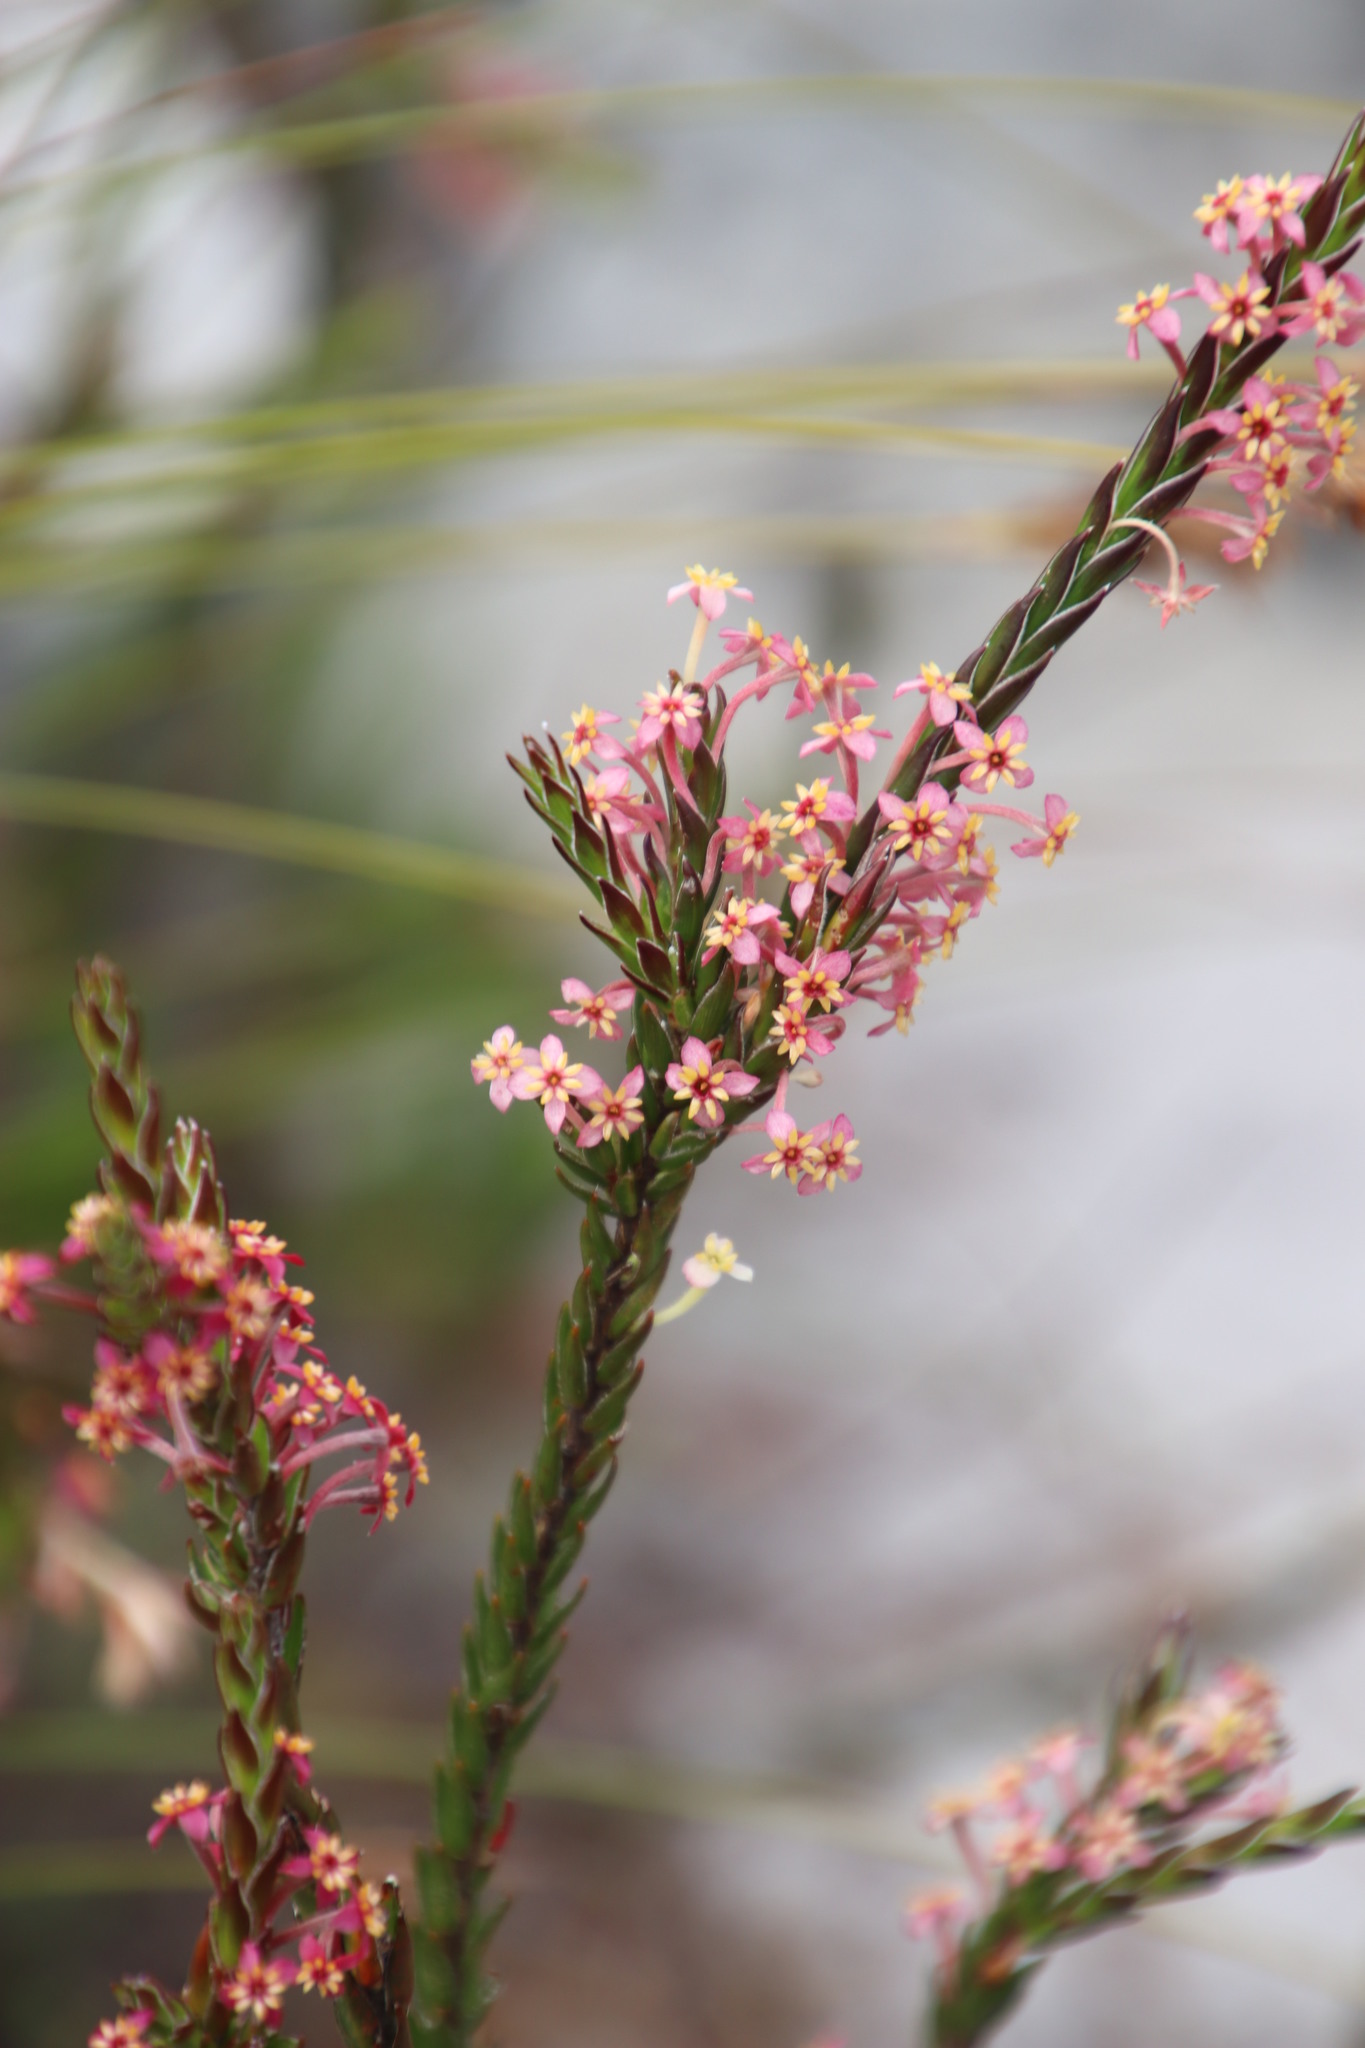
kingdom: Plantae
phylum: Tracheophyta
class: Magnoliopsida
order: Malvales
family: Thymelaeaceae
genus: Struthiola
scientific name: Struthiola ciliata
